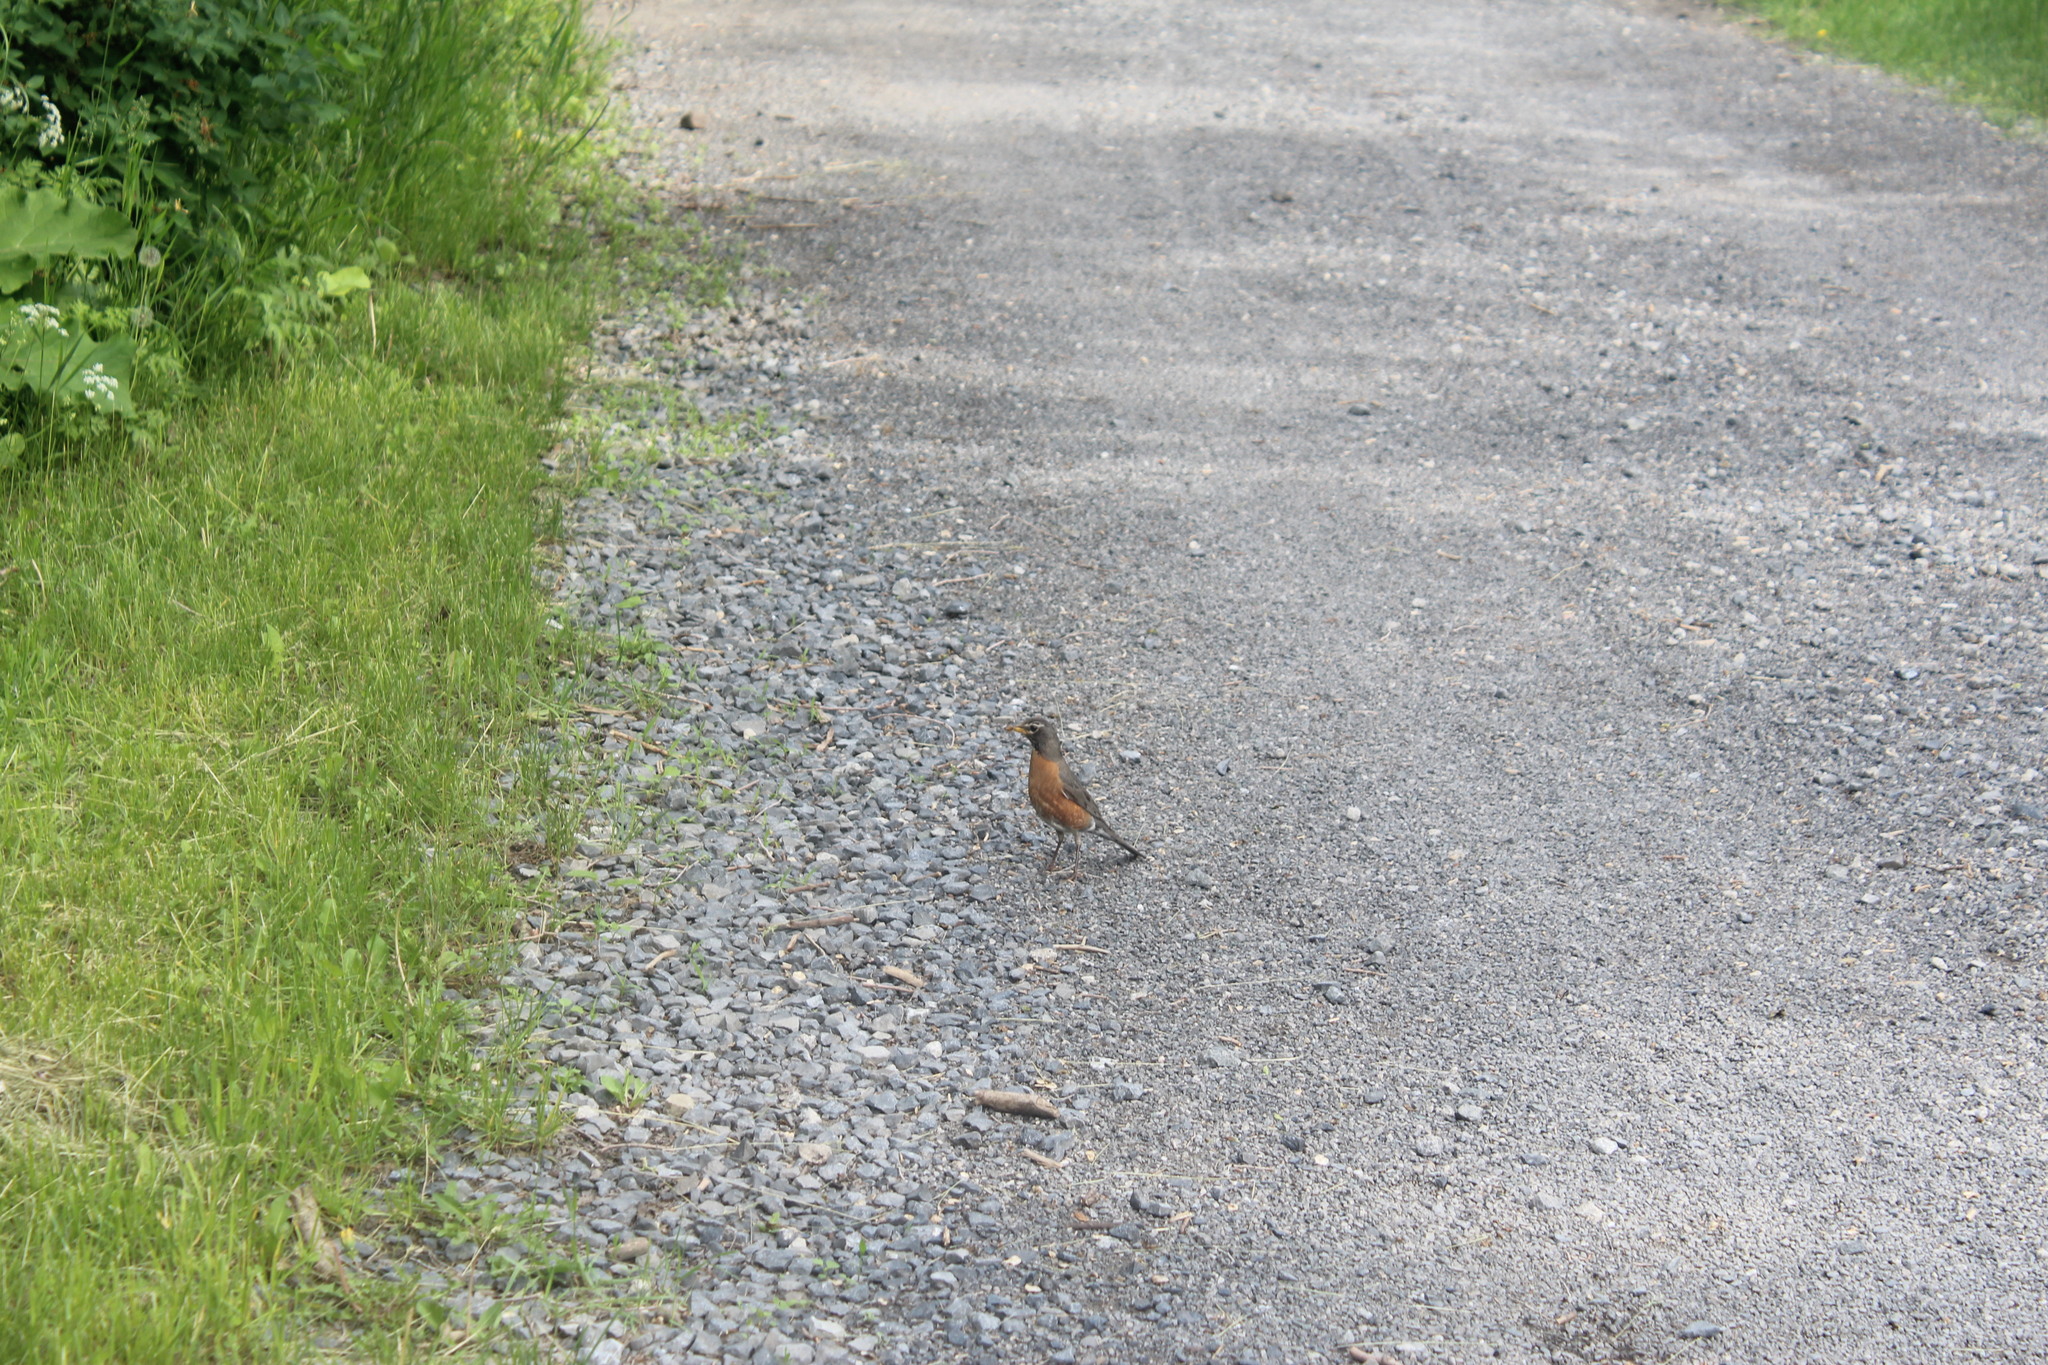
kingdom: Animalia
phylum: Chordata
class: Aves
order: Passeriformes
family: Turdidae
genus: Turdus
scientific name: Turdus migratorius
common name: American robin
